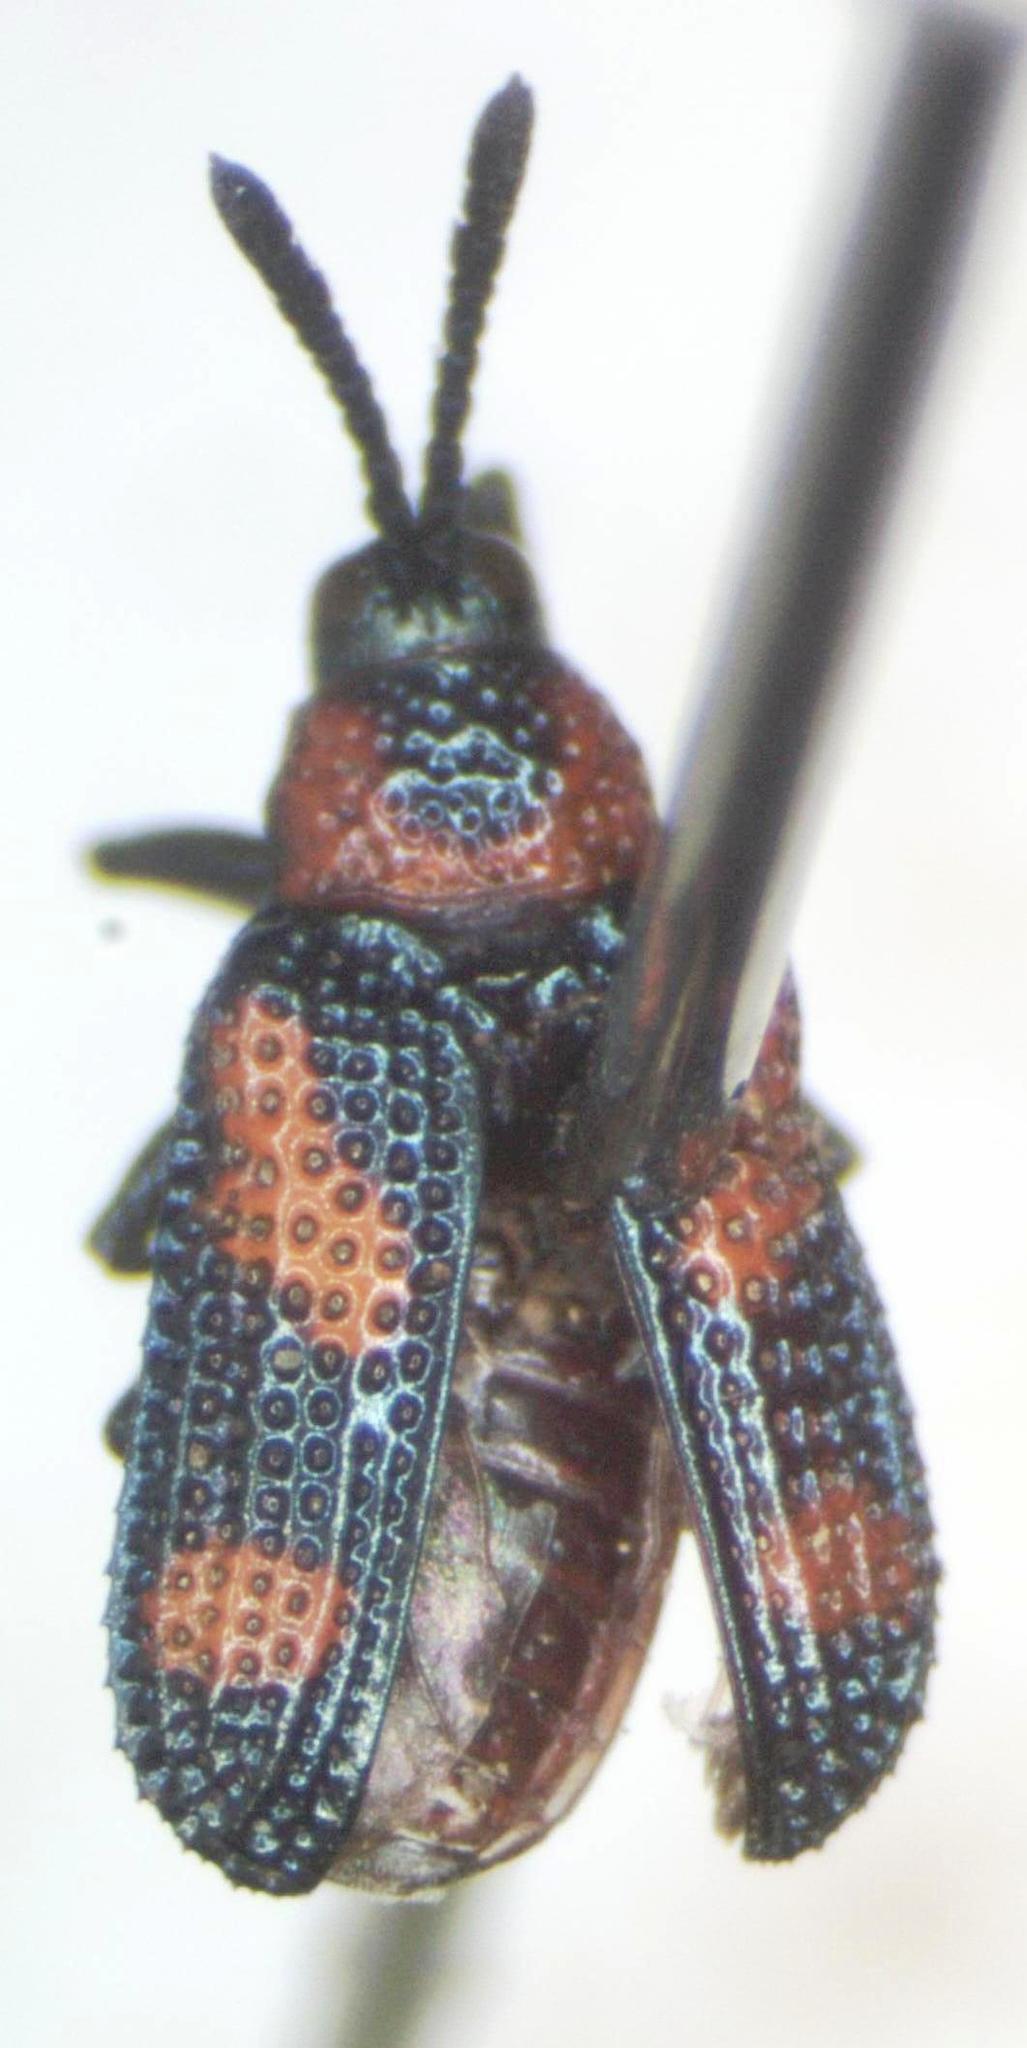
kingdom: Animalia
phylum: Arthropoda
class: Insecta
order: Coleoptera
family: Chrysomelidae
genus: Microrhopala
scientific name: Microrhopala perforata
